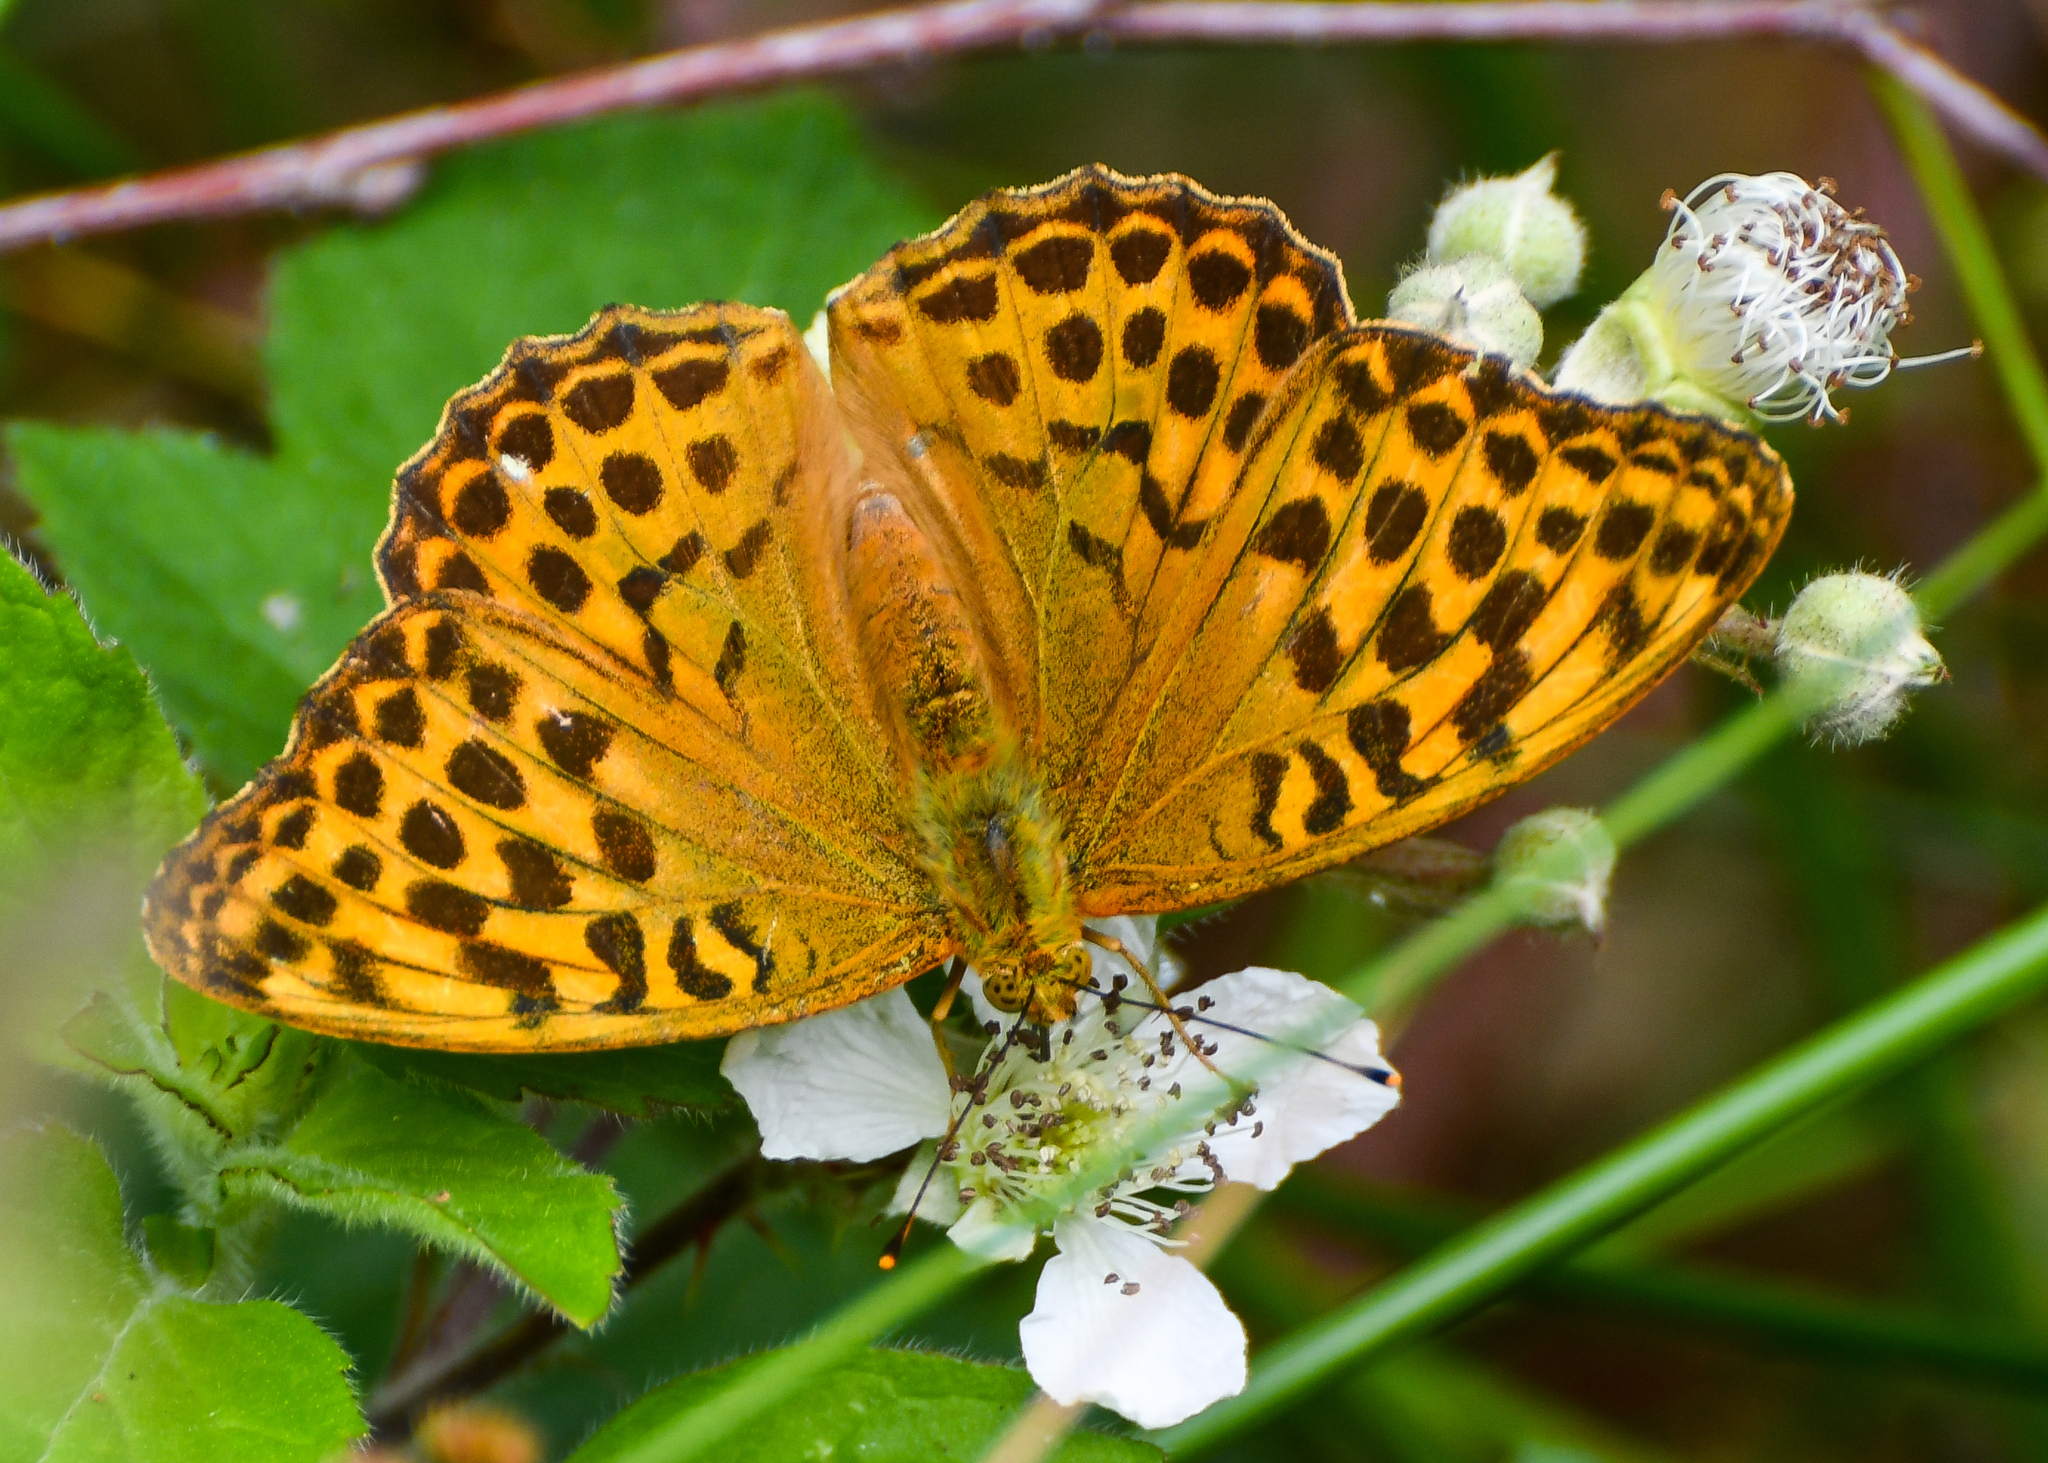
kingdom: Animalia
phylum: Arthropoda
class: Insecta
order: Lepidoptera
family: Nymphalidae
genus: Argynnis
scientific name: Argynnis paphia
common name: Silver-washed fritillary
